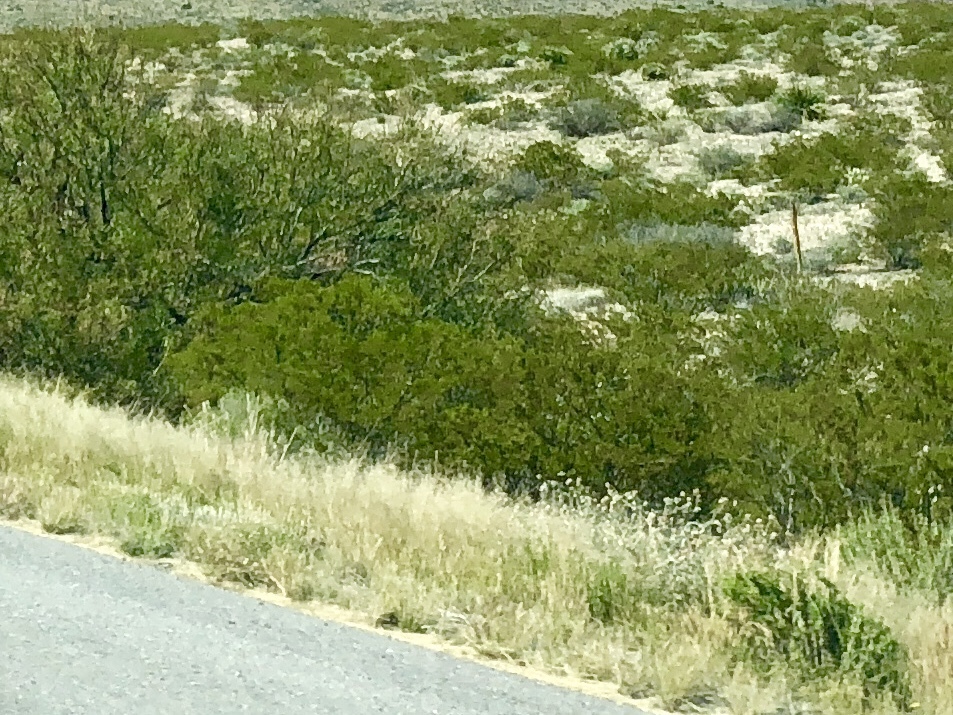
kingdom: Plantae
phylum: Tracheophyta
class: Magnoliopsida
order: Zygophyllales
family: Zygophyllaceae
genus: Larrea
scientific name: Larrea tridentata
